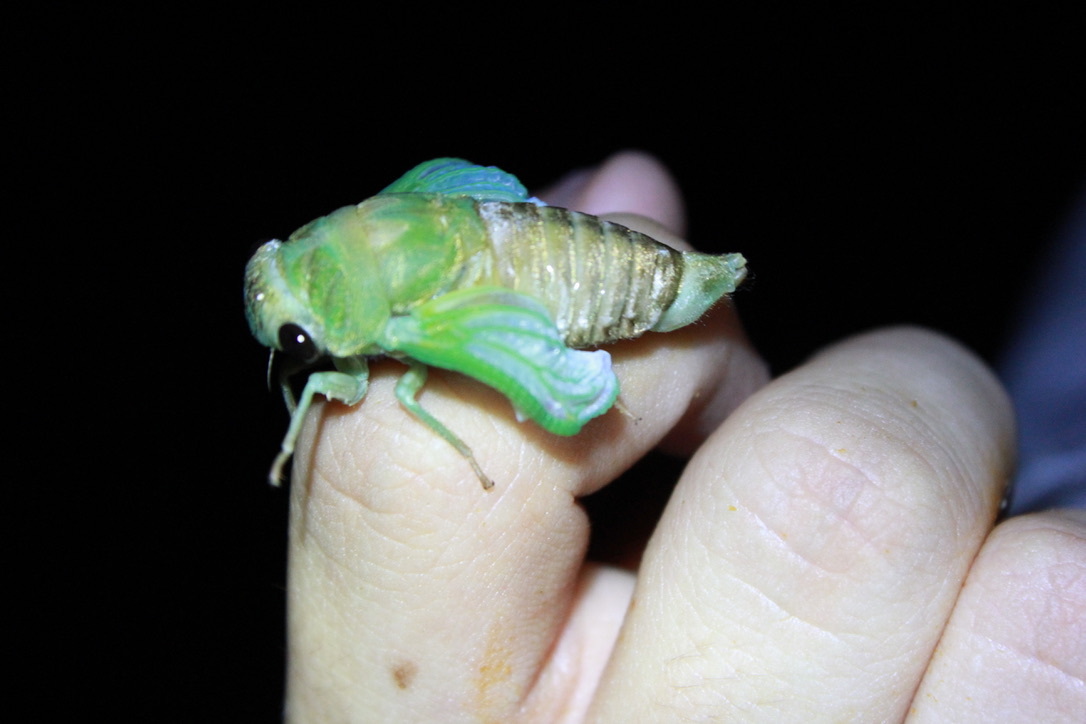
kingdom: Animalia
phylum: Arthropoda
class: Insecta
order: Hemiptera
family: Cicadidae
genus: Neotibicen
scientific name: Neotibicen superbus
